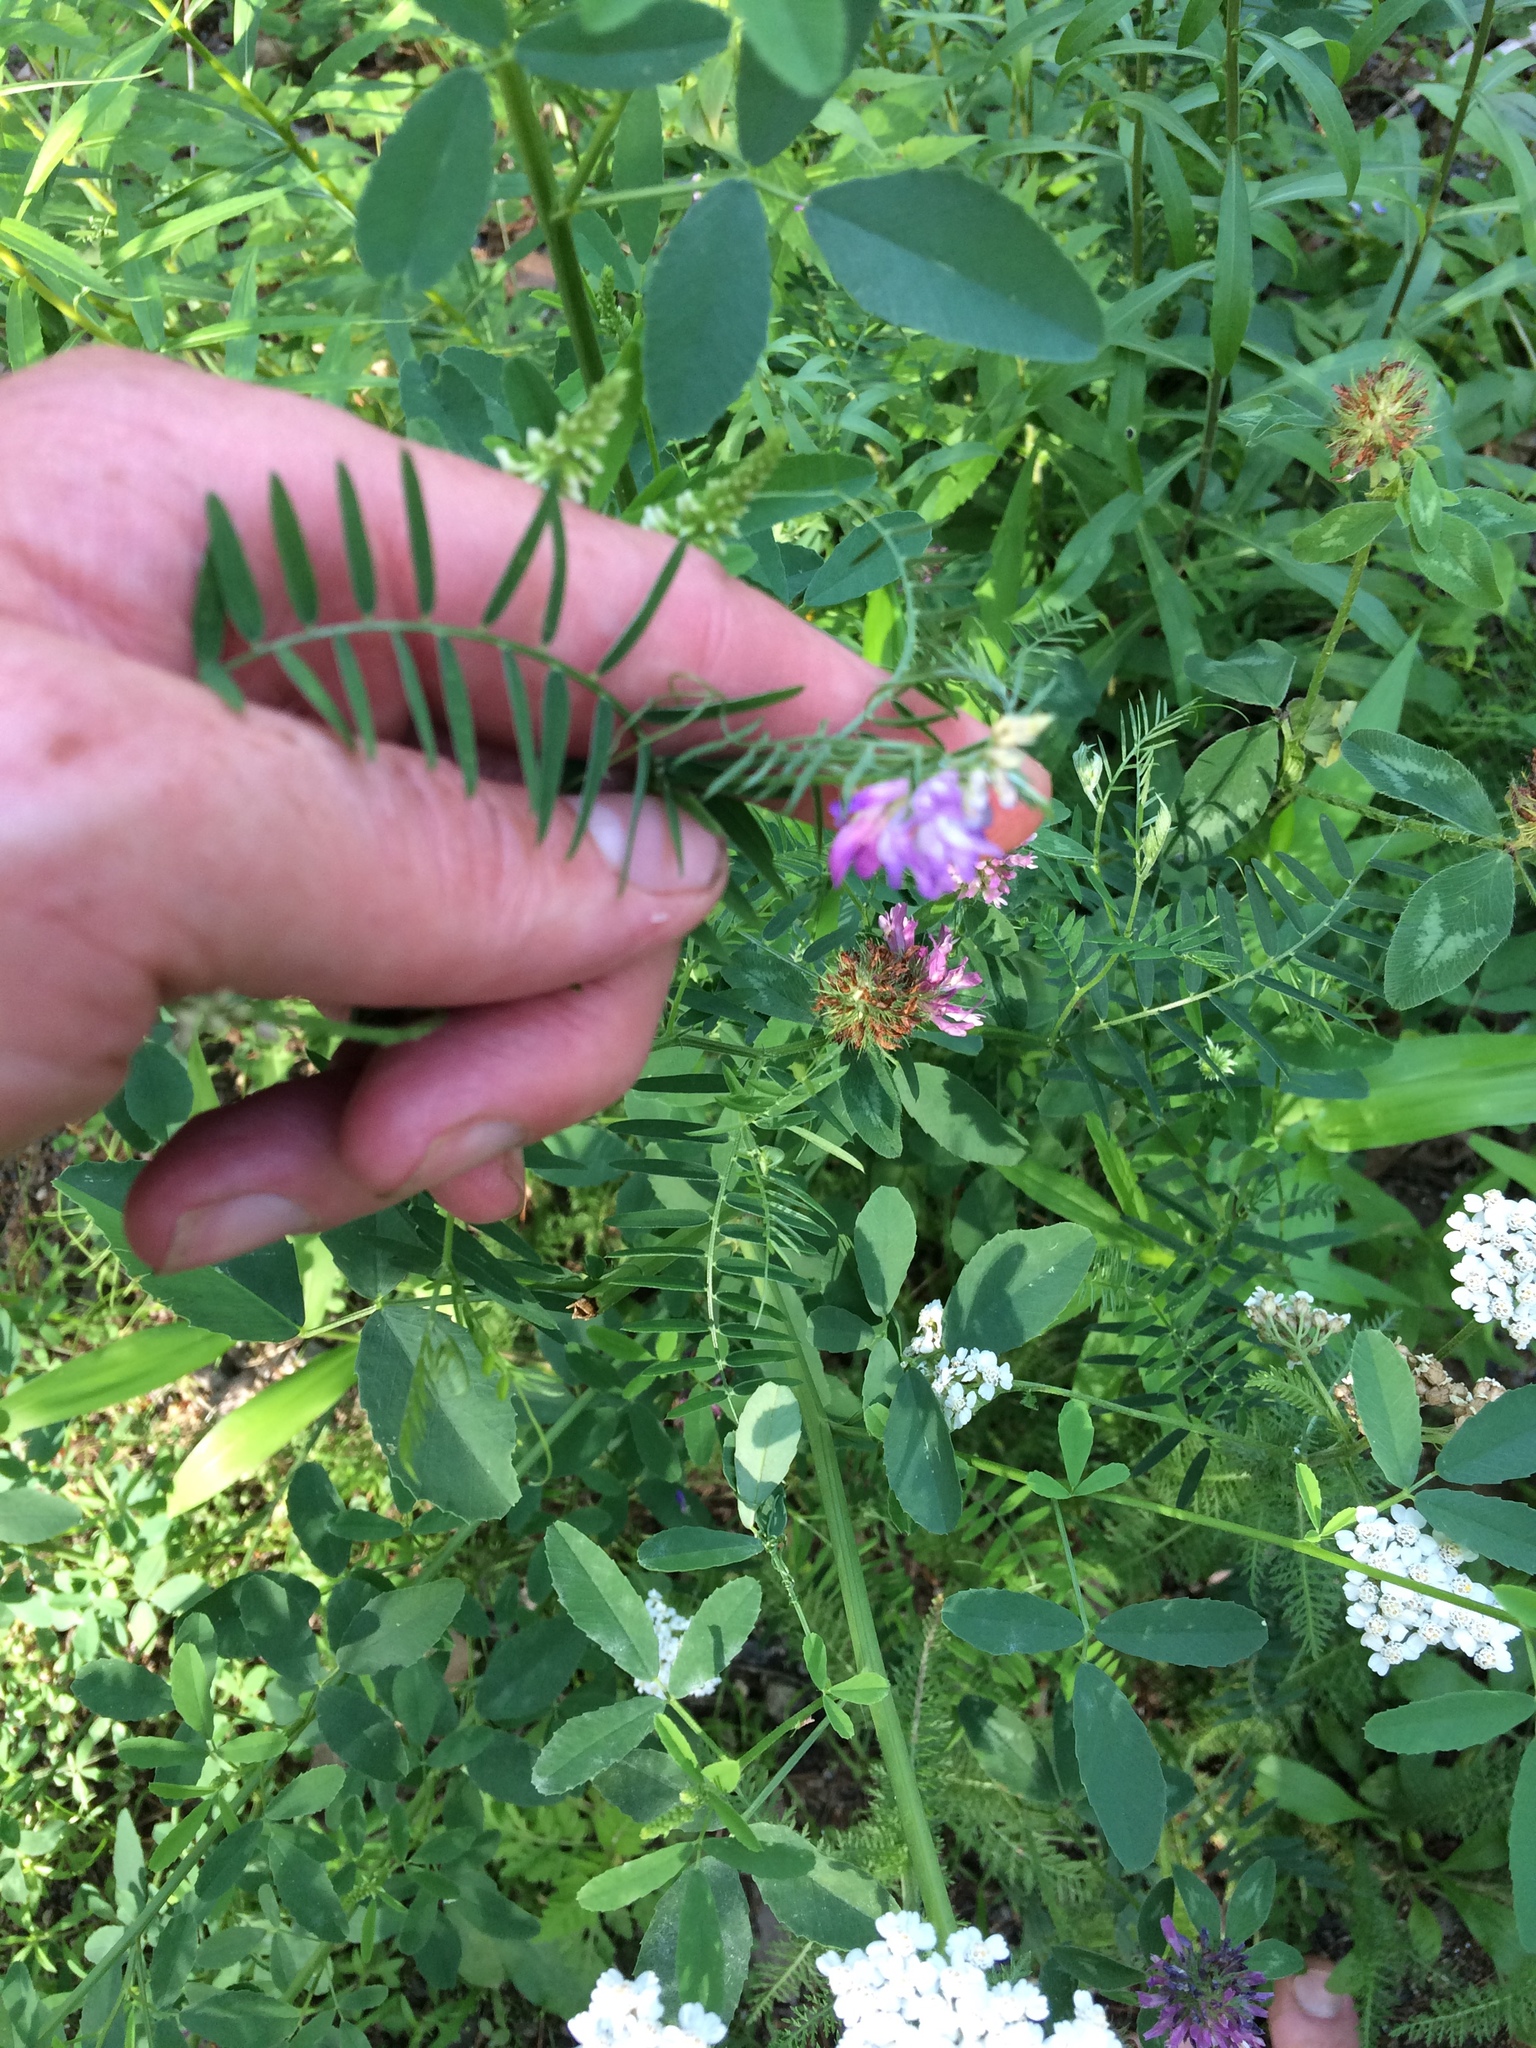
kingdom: Plantae
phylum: Tracheophyta
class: Magnoliopsida
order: Fabales
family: Fabaceae
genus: Vicia
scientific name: Vicia cracca
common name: Bird vetch
